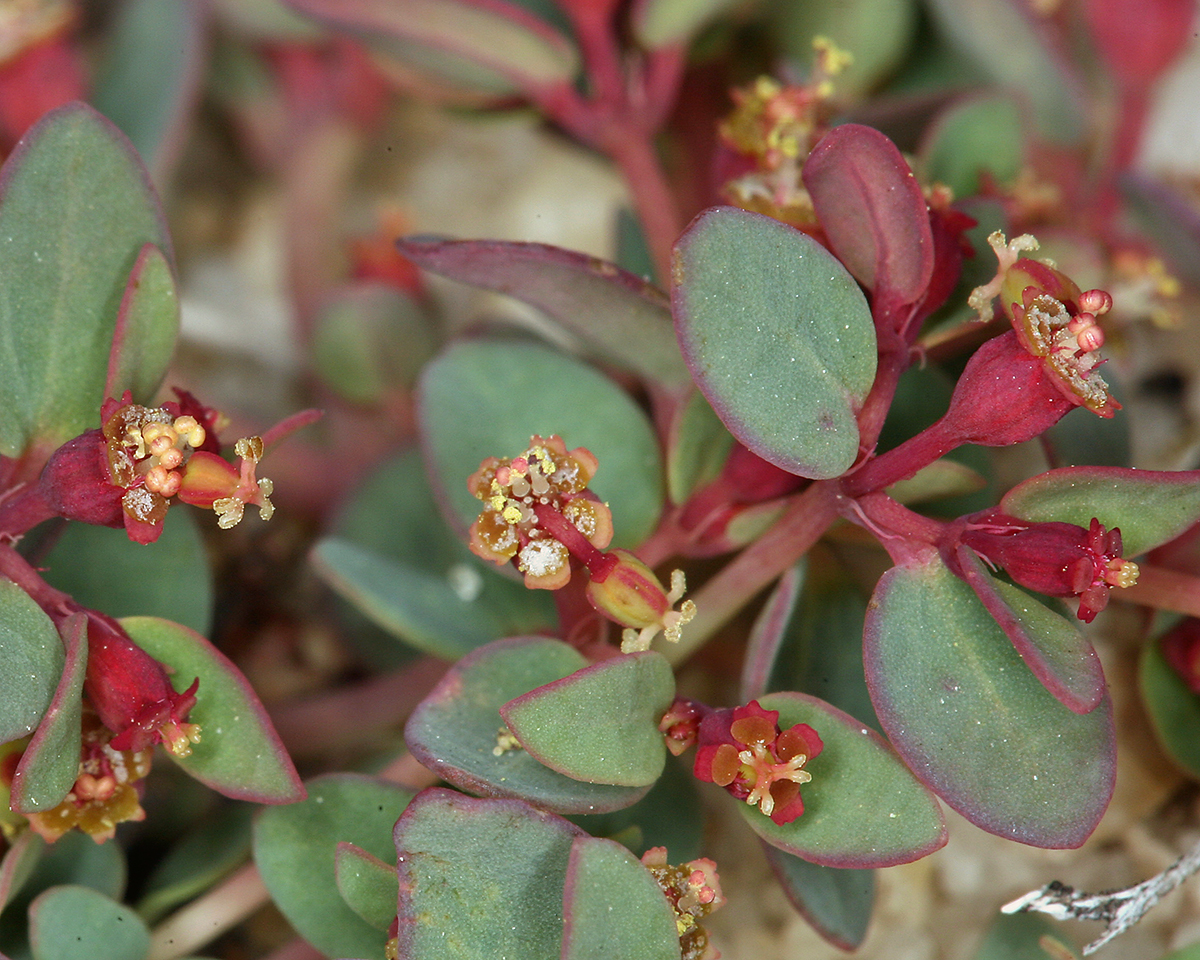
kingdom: Plantae
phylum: Tracheophyta
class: Magnoliopsida
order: Malpighiales
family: Euphorbiaceae
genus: Euphorbia
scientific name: Euphorbia fendleri
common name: Fendler's euphorbia
